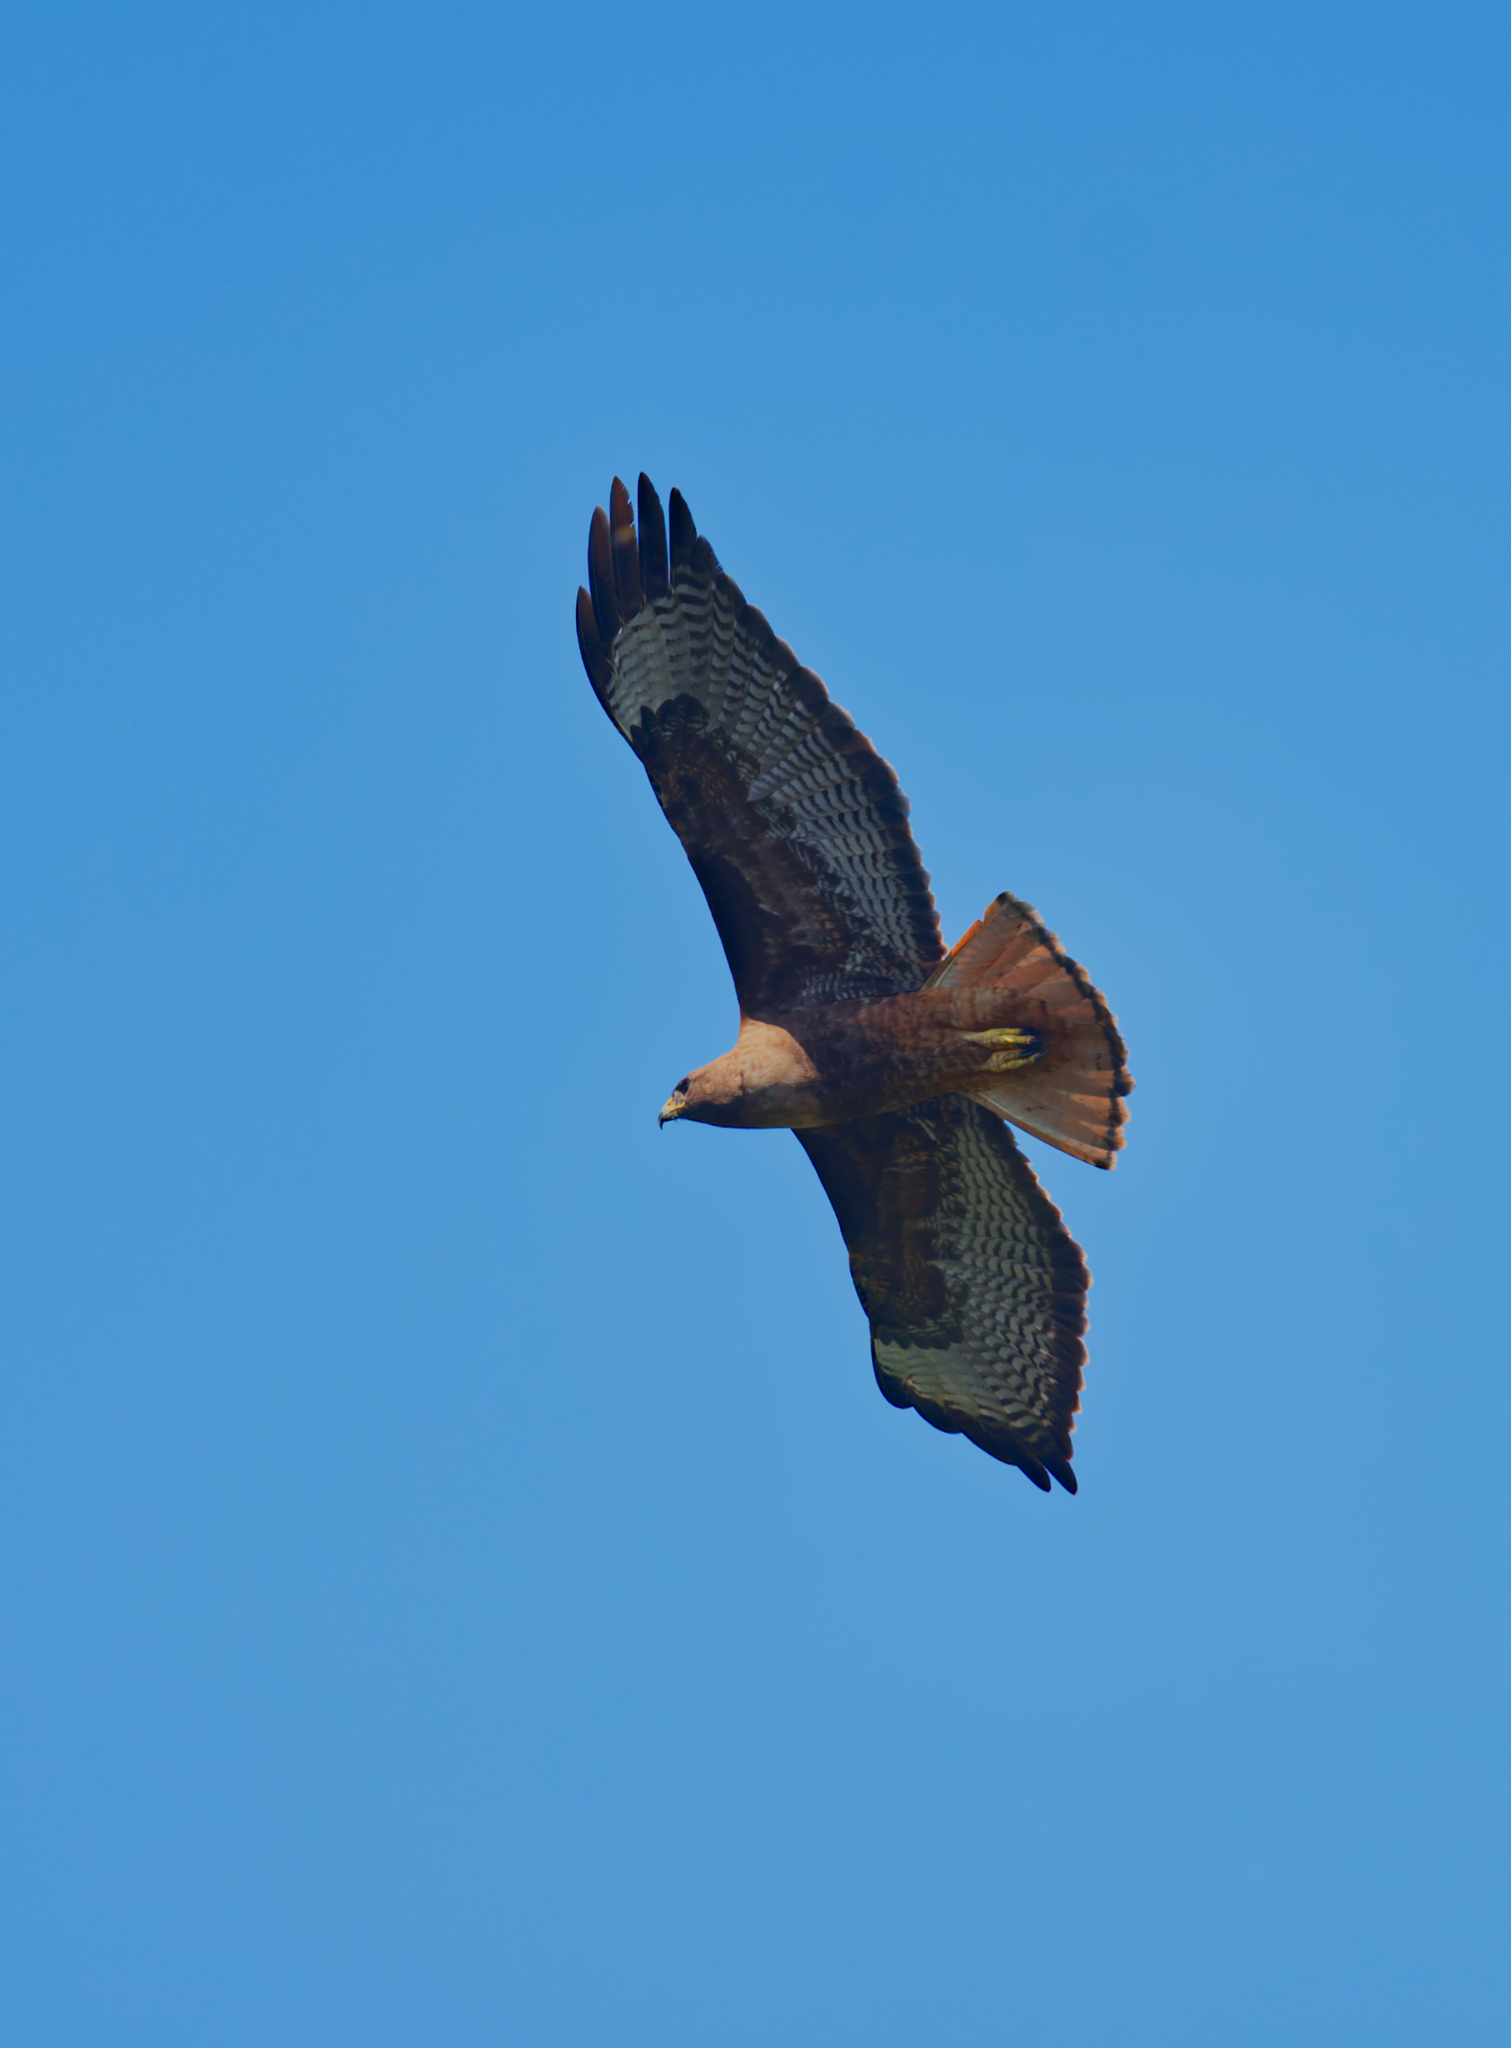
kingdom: Animalia
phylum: Chordata
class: Aves
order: Accipitriformes
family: Accipitridae
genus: Buteo
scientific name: Buteo jamaicensis
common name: Red-tailed hawk
